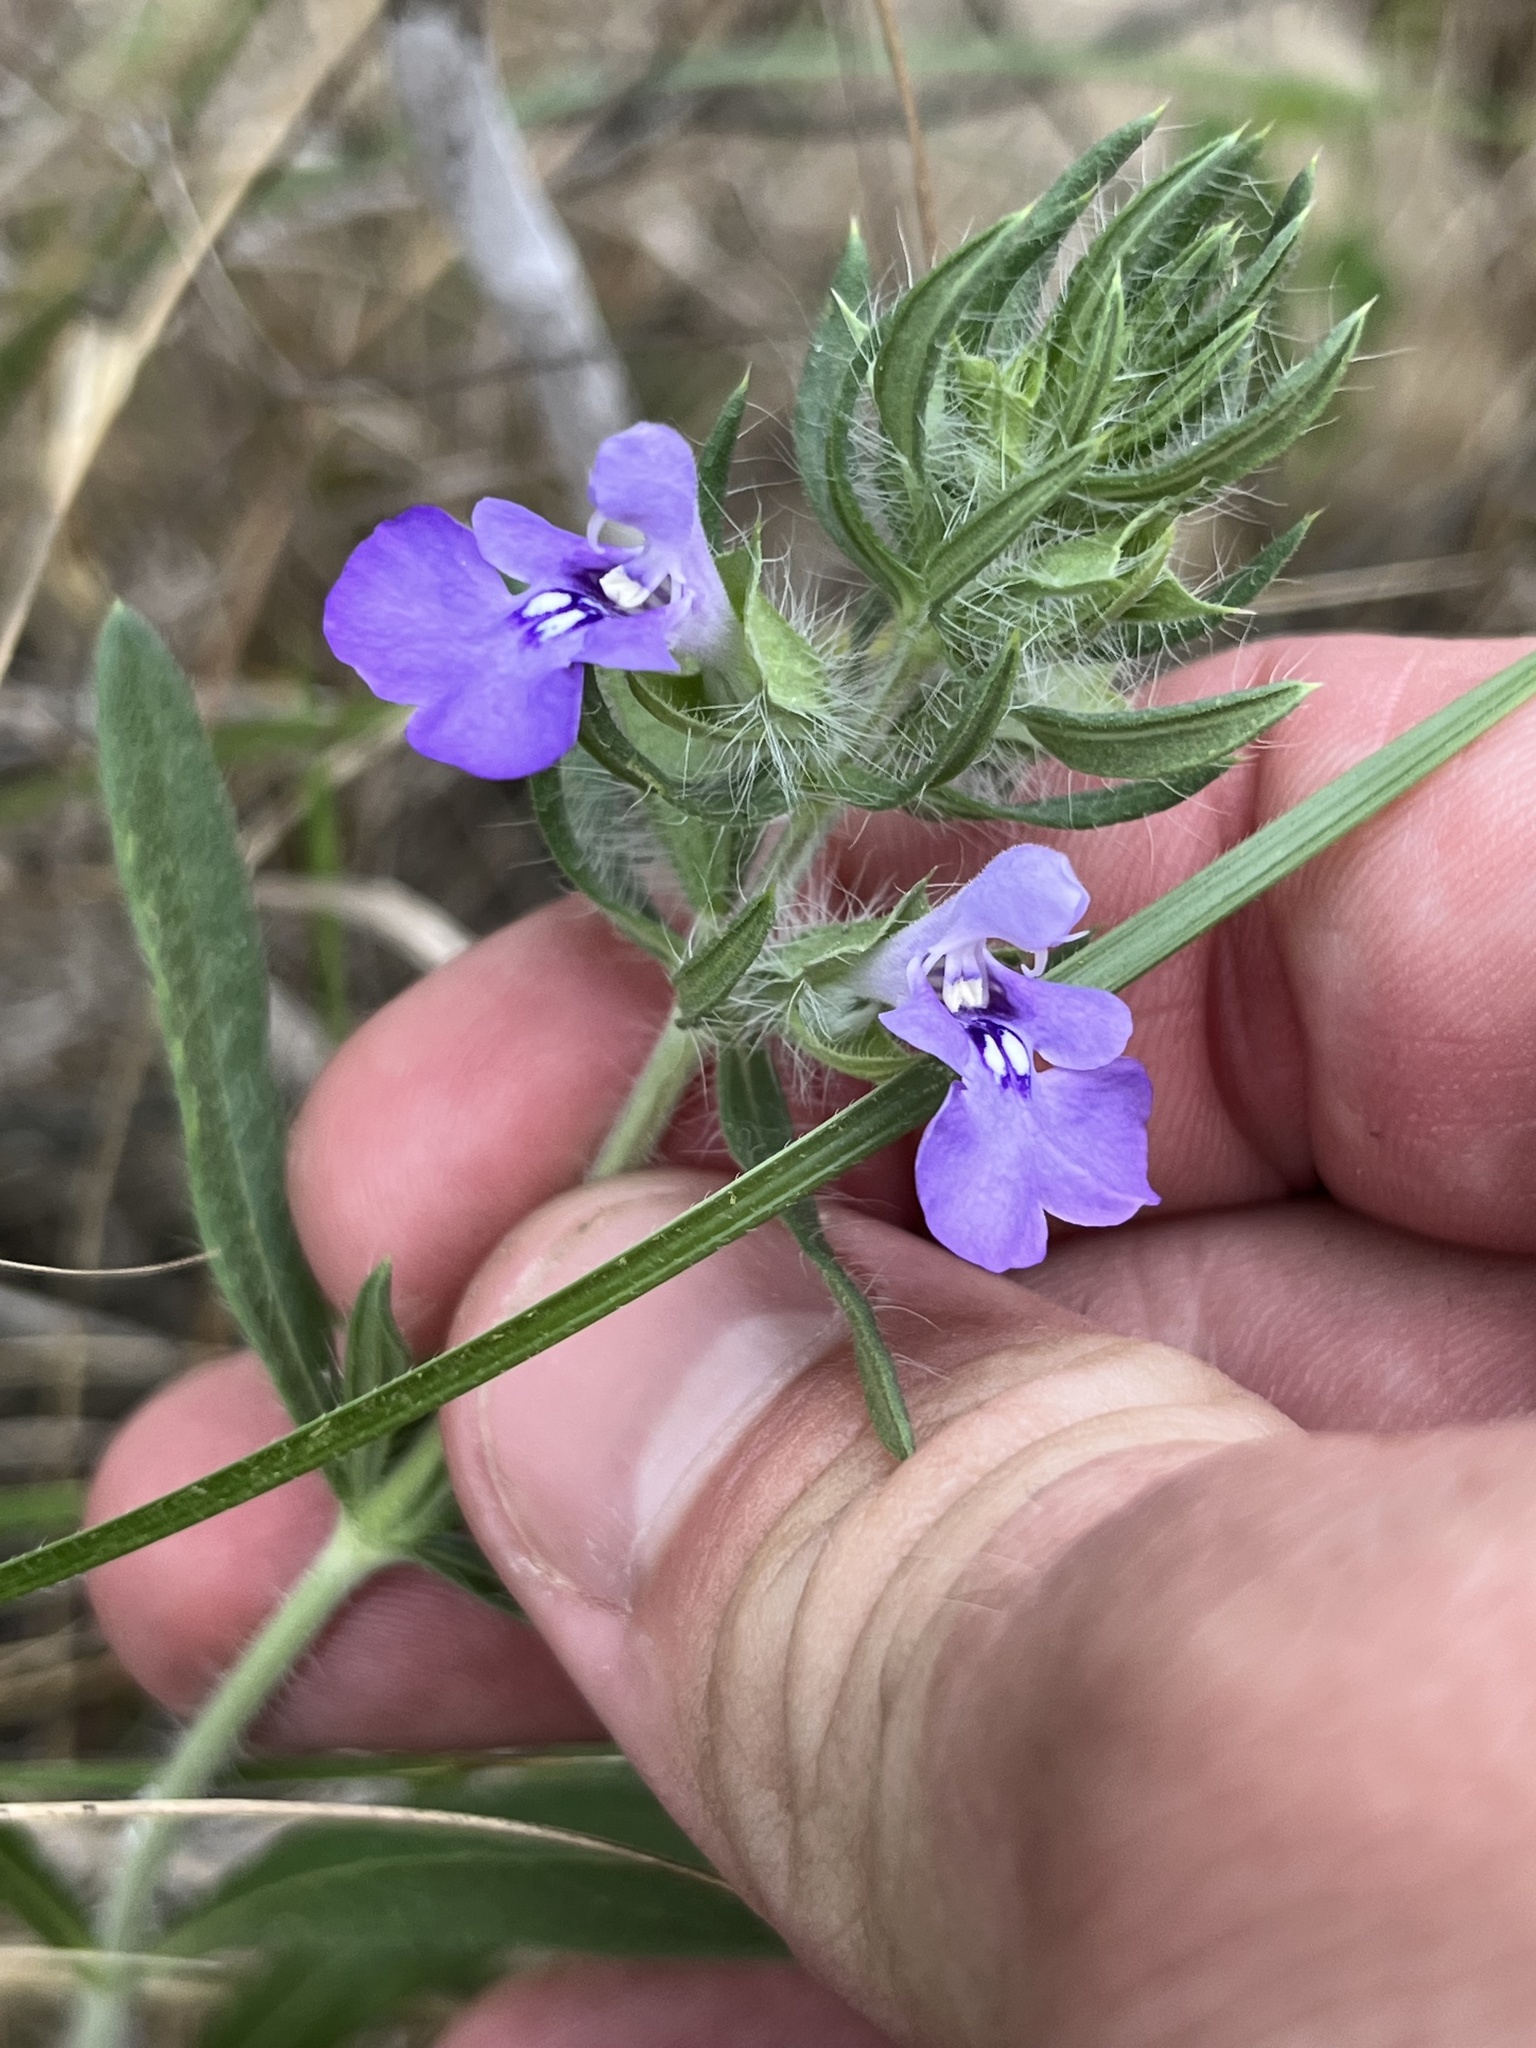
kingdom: Plantae
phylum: Tracheophyta
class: Magnoliopsida
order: Lamiales
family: Lamiaceae
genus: Salvia
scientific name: Salvia texana
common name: Texas sage
